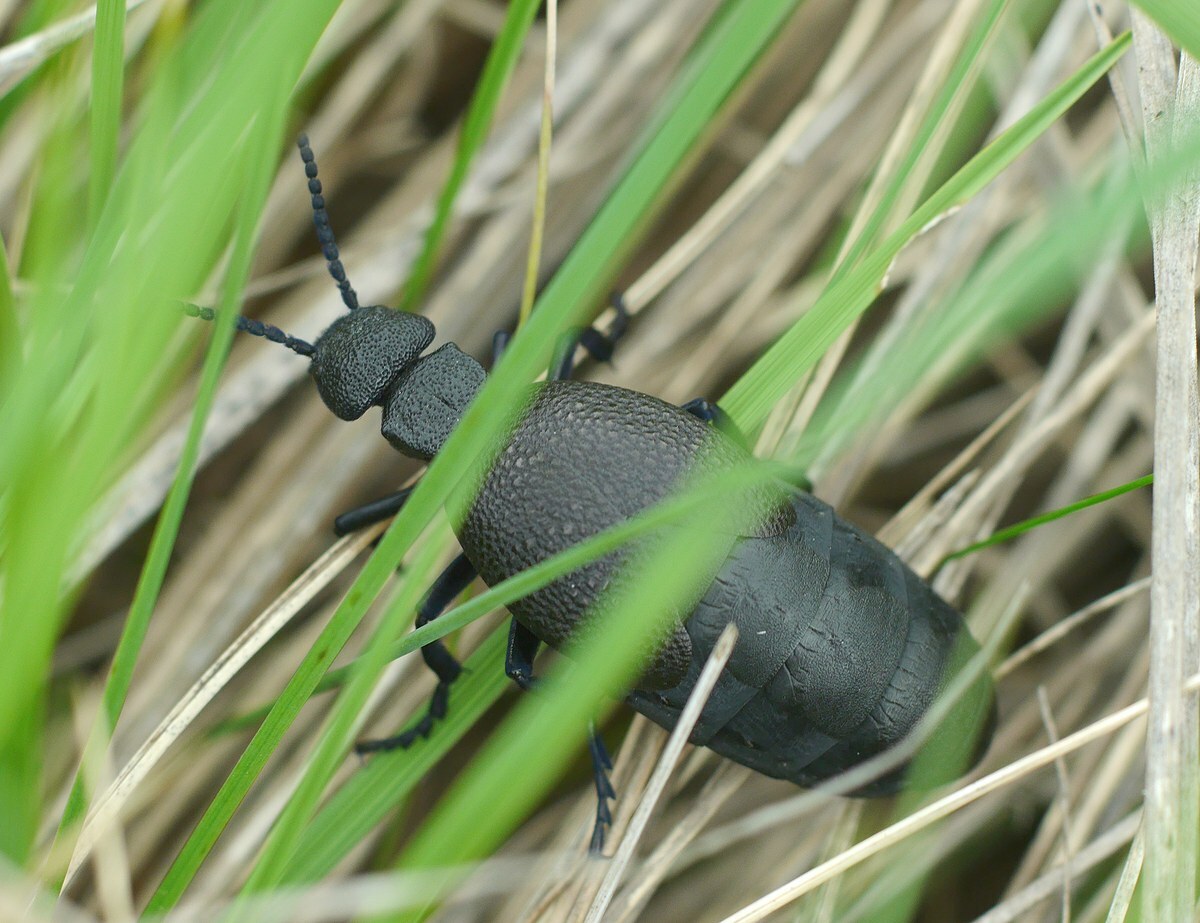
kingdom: Animalia
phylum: Arthropoda
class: Insecta
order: Coleoptera
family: Meloidae
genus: Meloe
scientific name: Meloe cicatricosus
